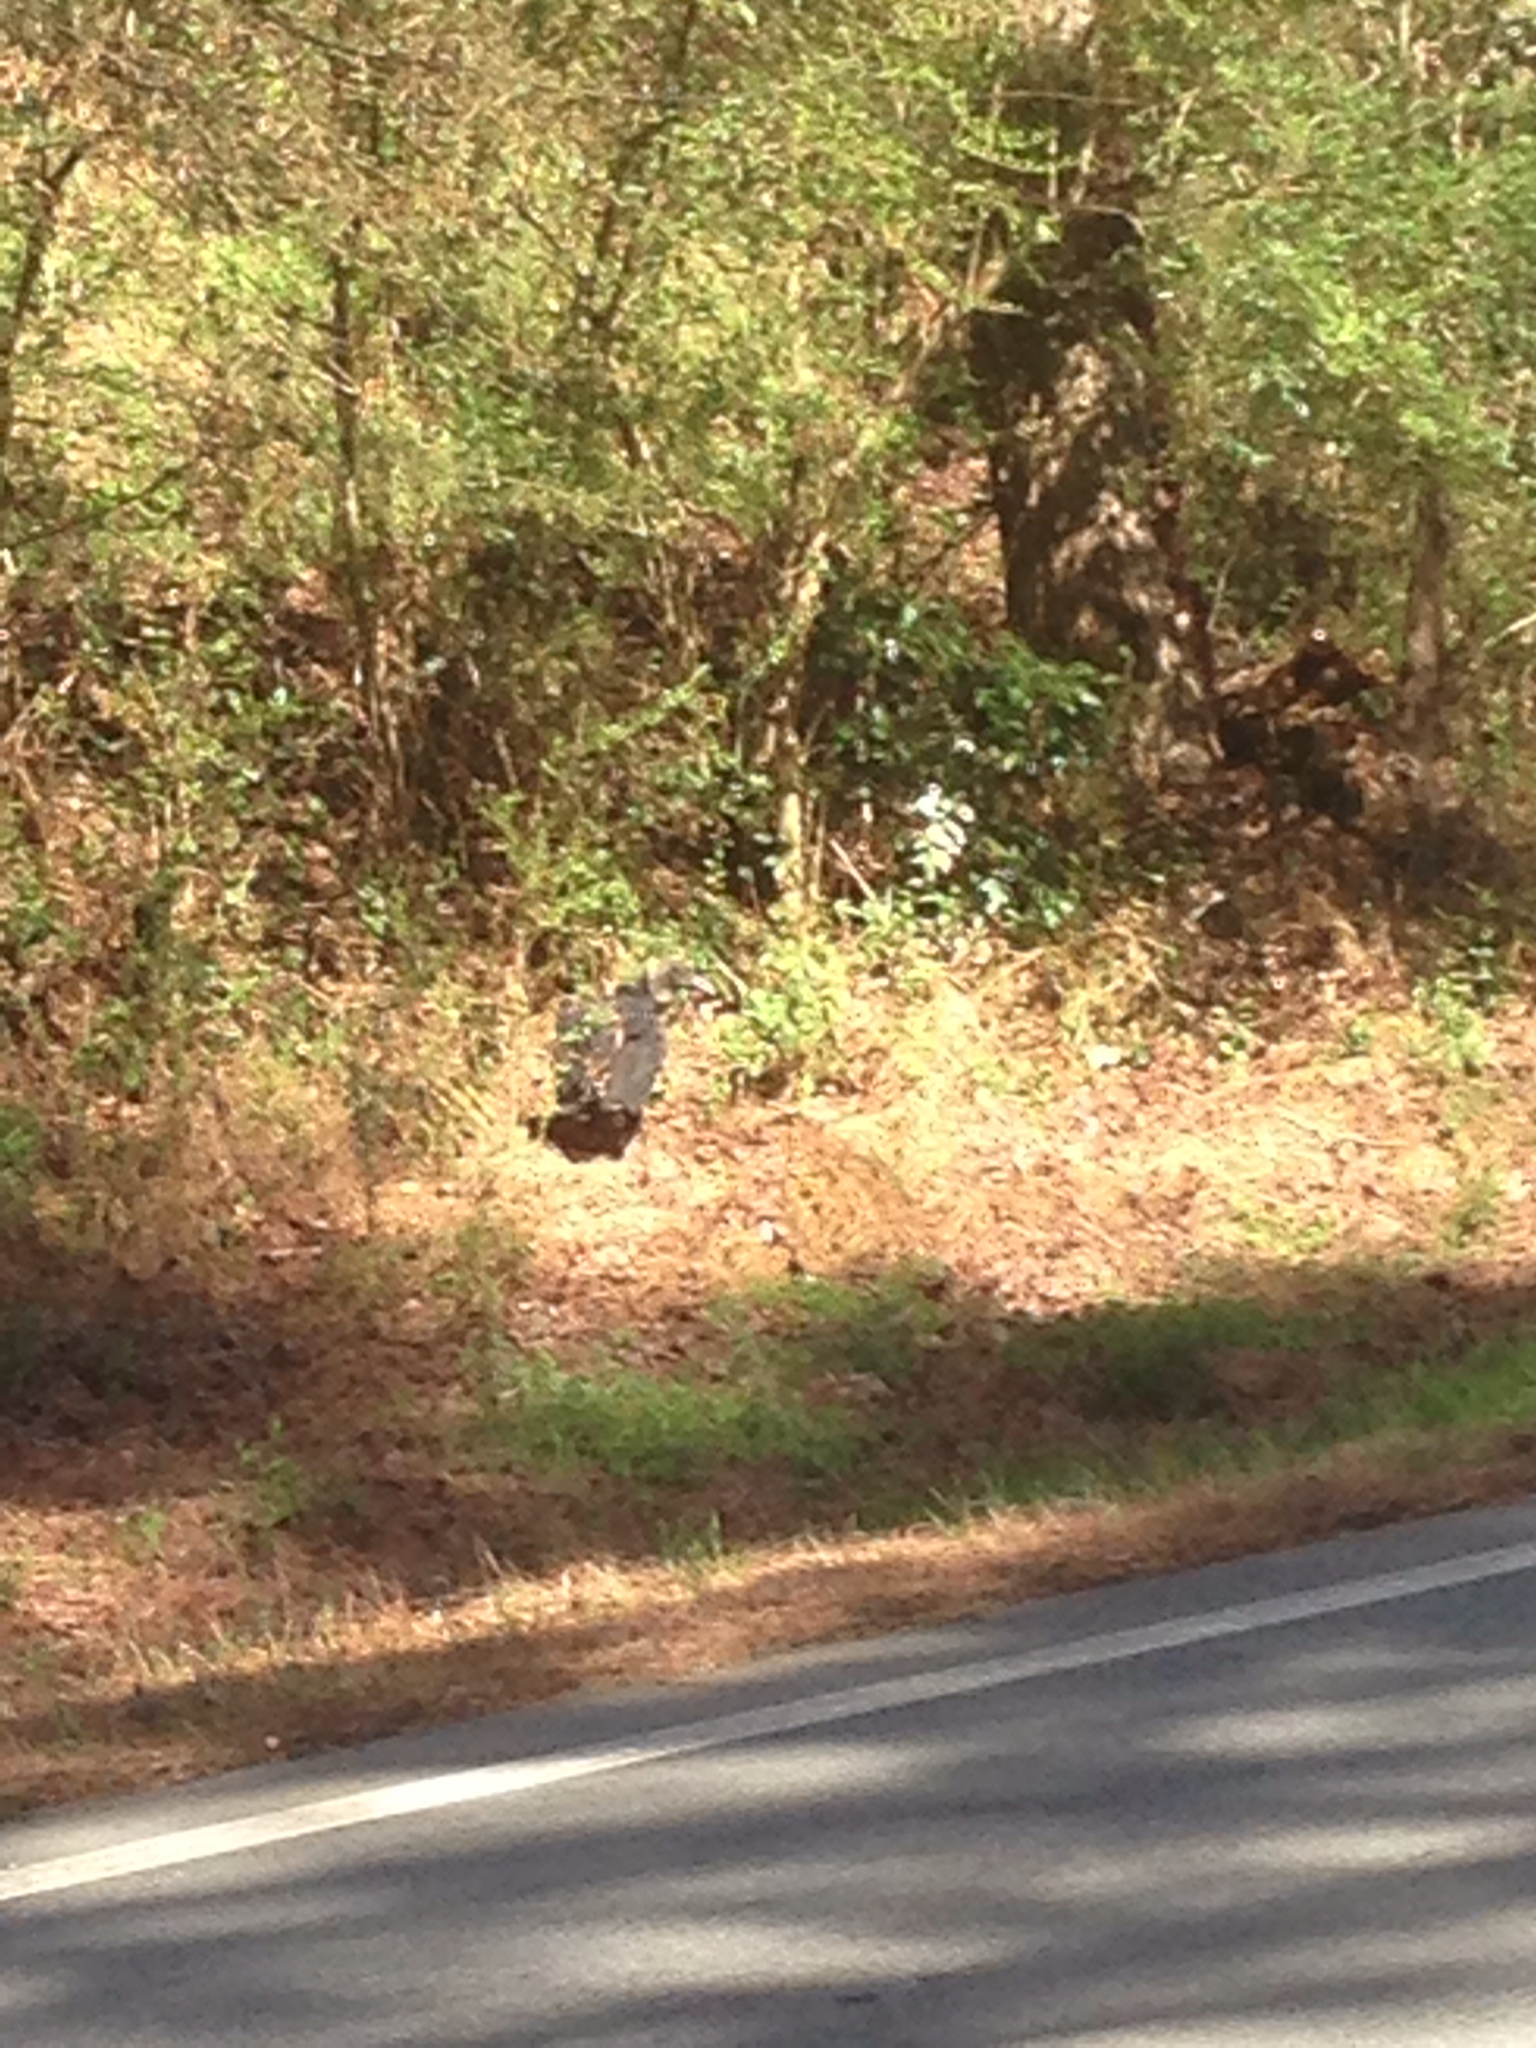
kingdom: Animalia
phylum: Chordata
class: Aves
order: Accipitriformes
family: Cathartidae
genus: Coragyps
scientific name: Coragyps atratus
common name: Black vulture
